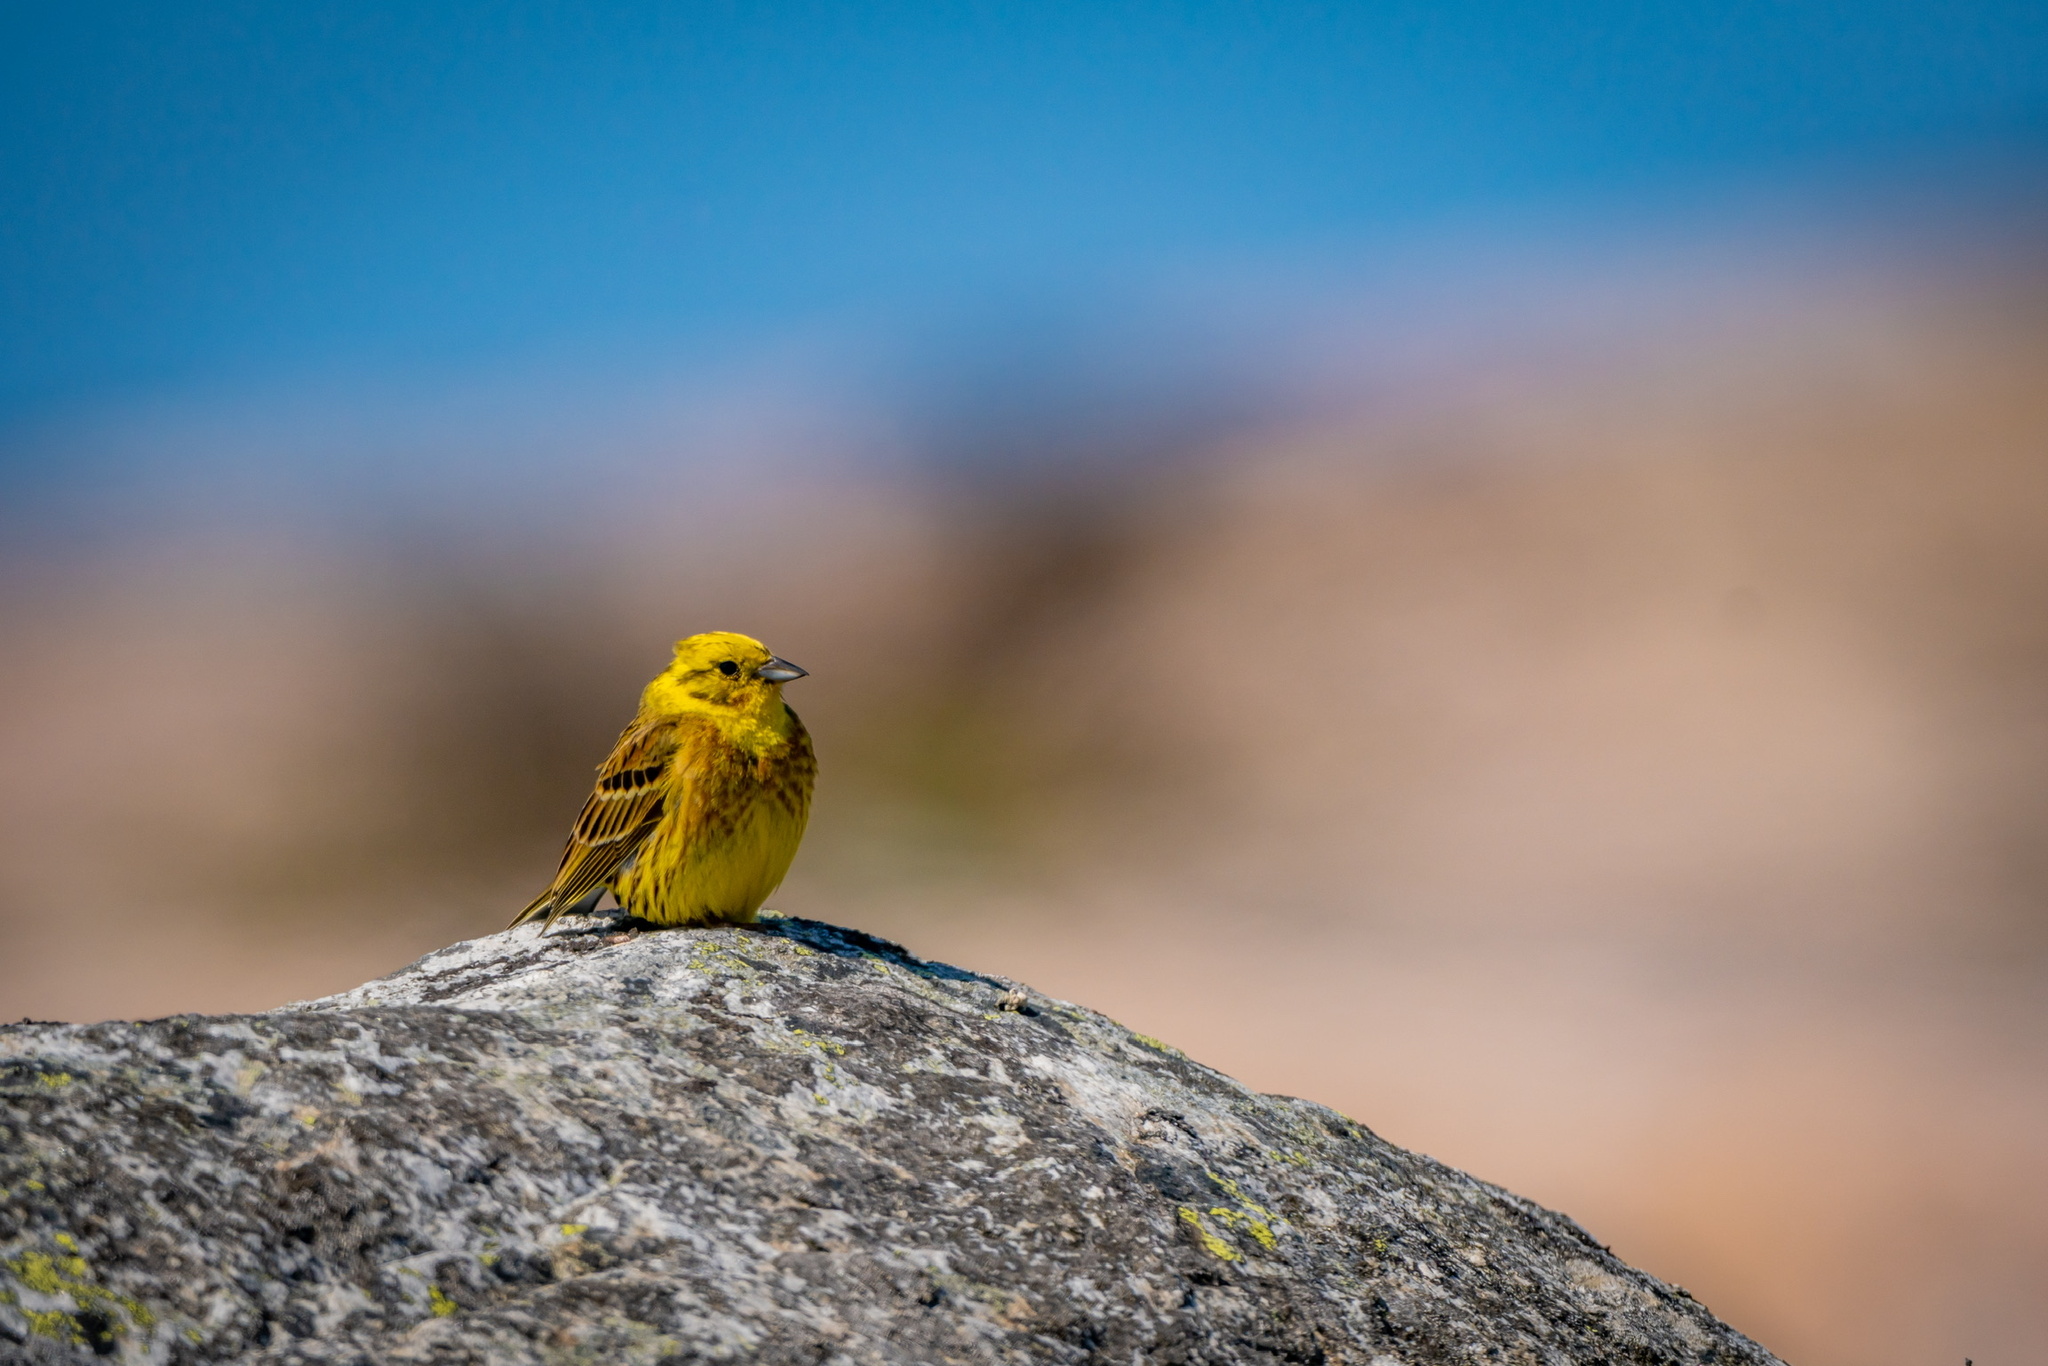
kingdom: Animalia
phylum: Chordata
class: Aves
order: Passeriformes
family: Emberizidae
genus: Emberiza
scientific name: Emberiza citrinella
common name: Yellowhammer
